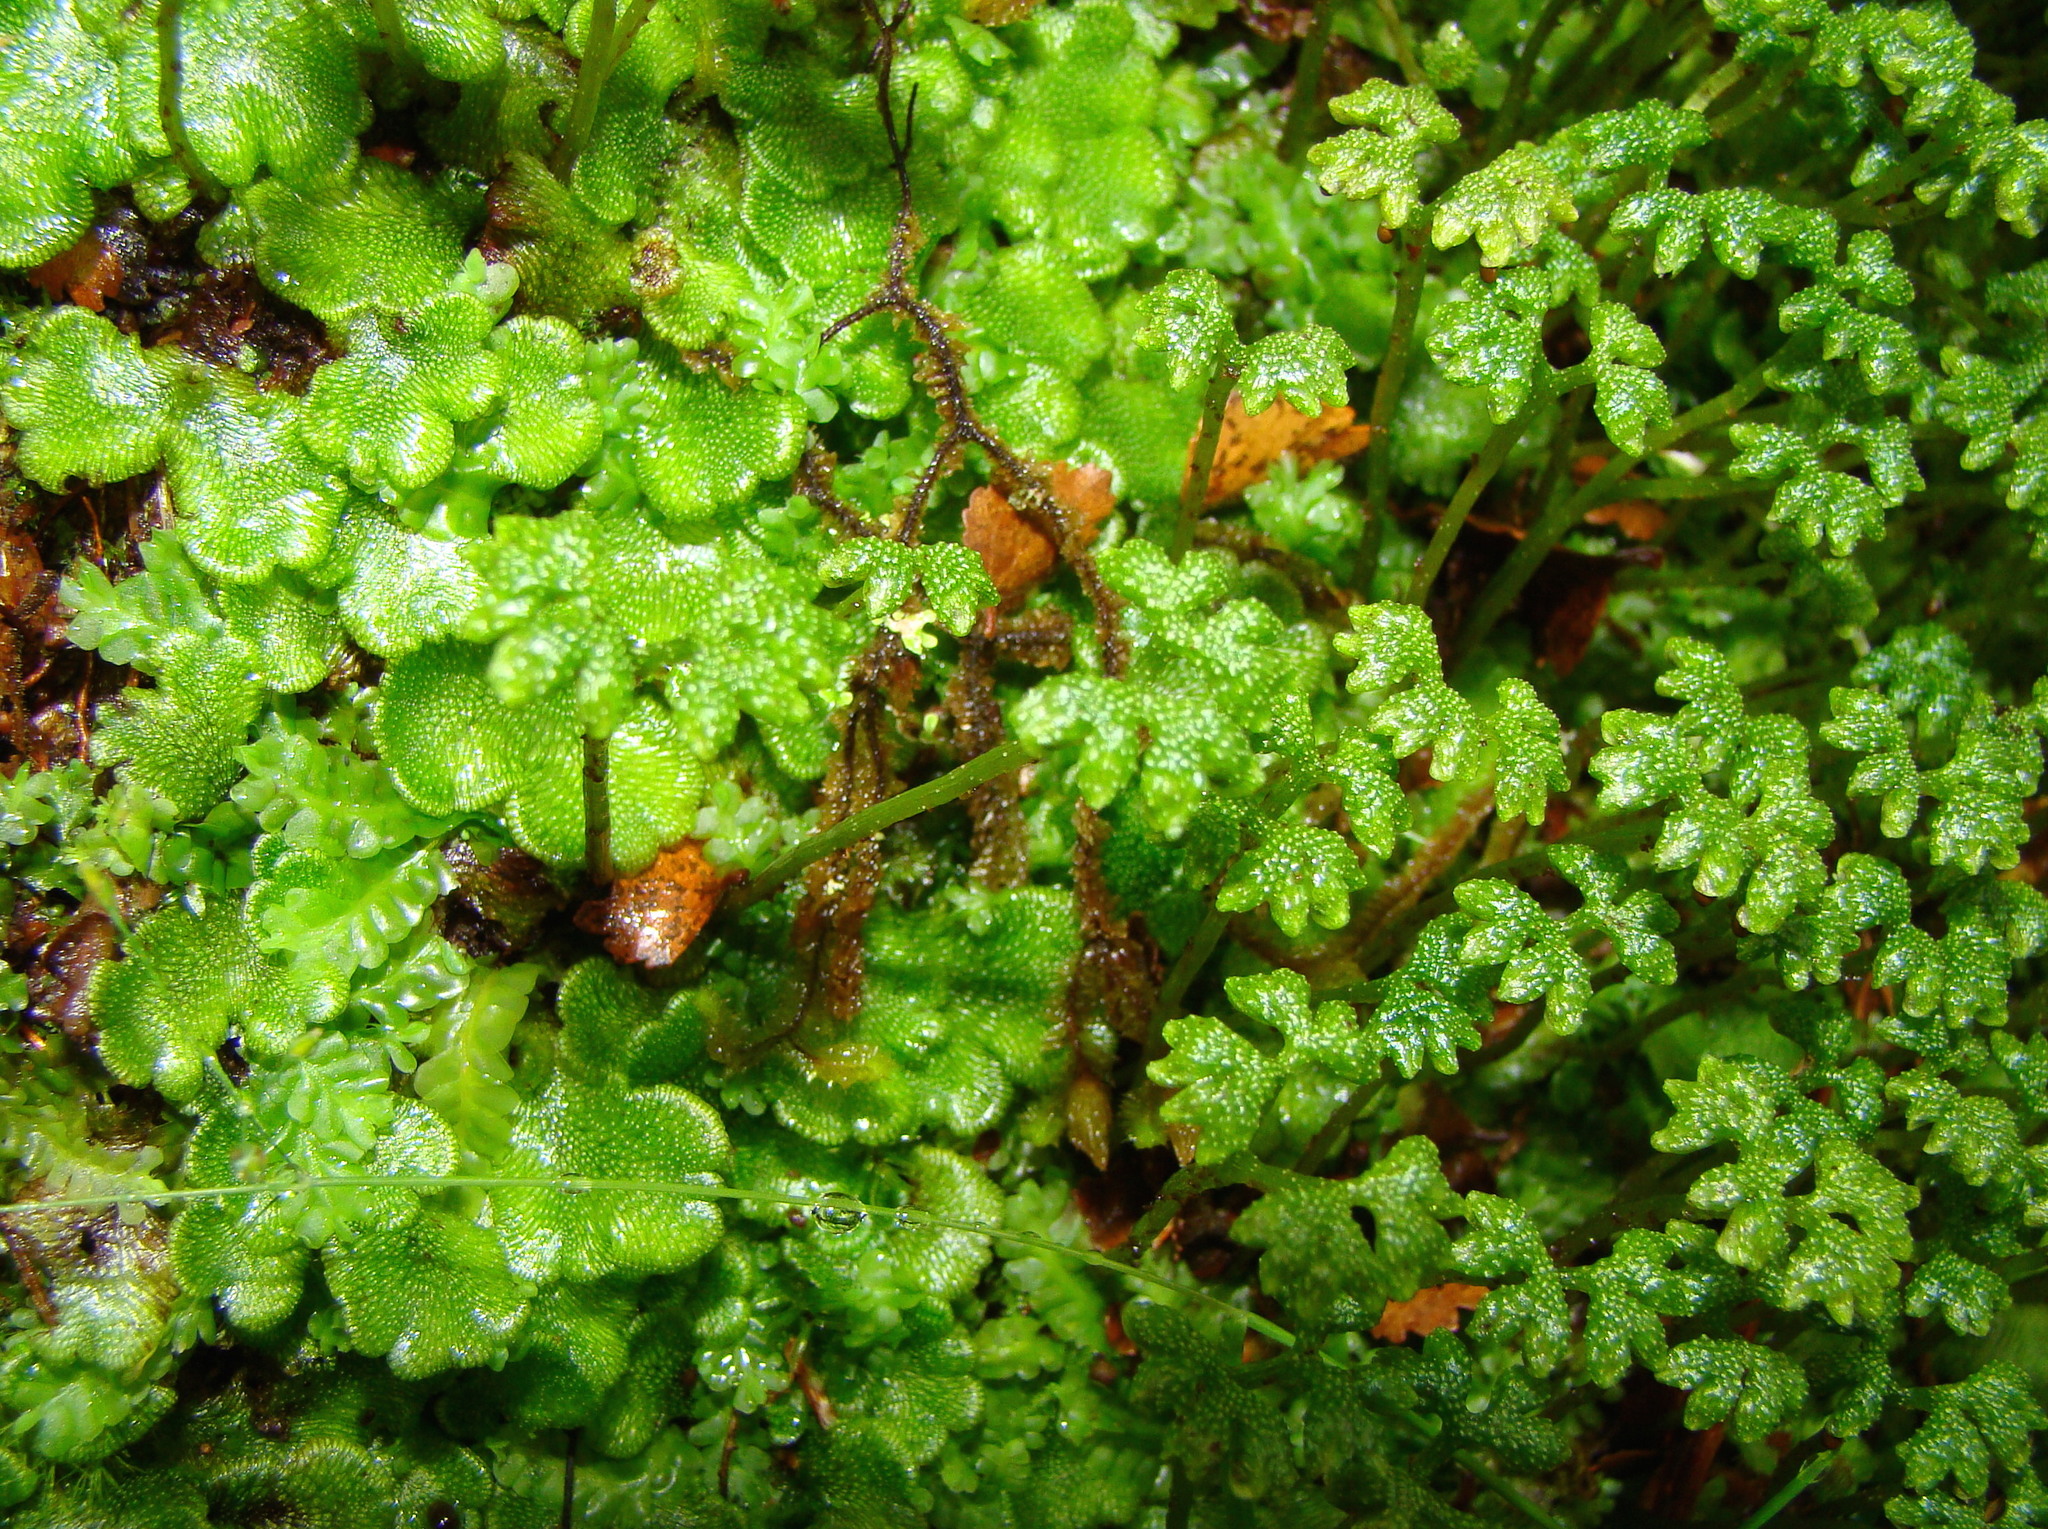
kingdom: Plantae
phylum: Marchantiophyta
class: Marchantiopsida
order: Neohodgsoniales
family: Neohodgsoniaceae
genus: Neohodgsonia
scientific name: Neohodgsonia mirabilis
